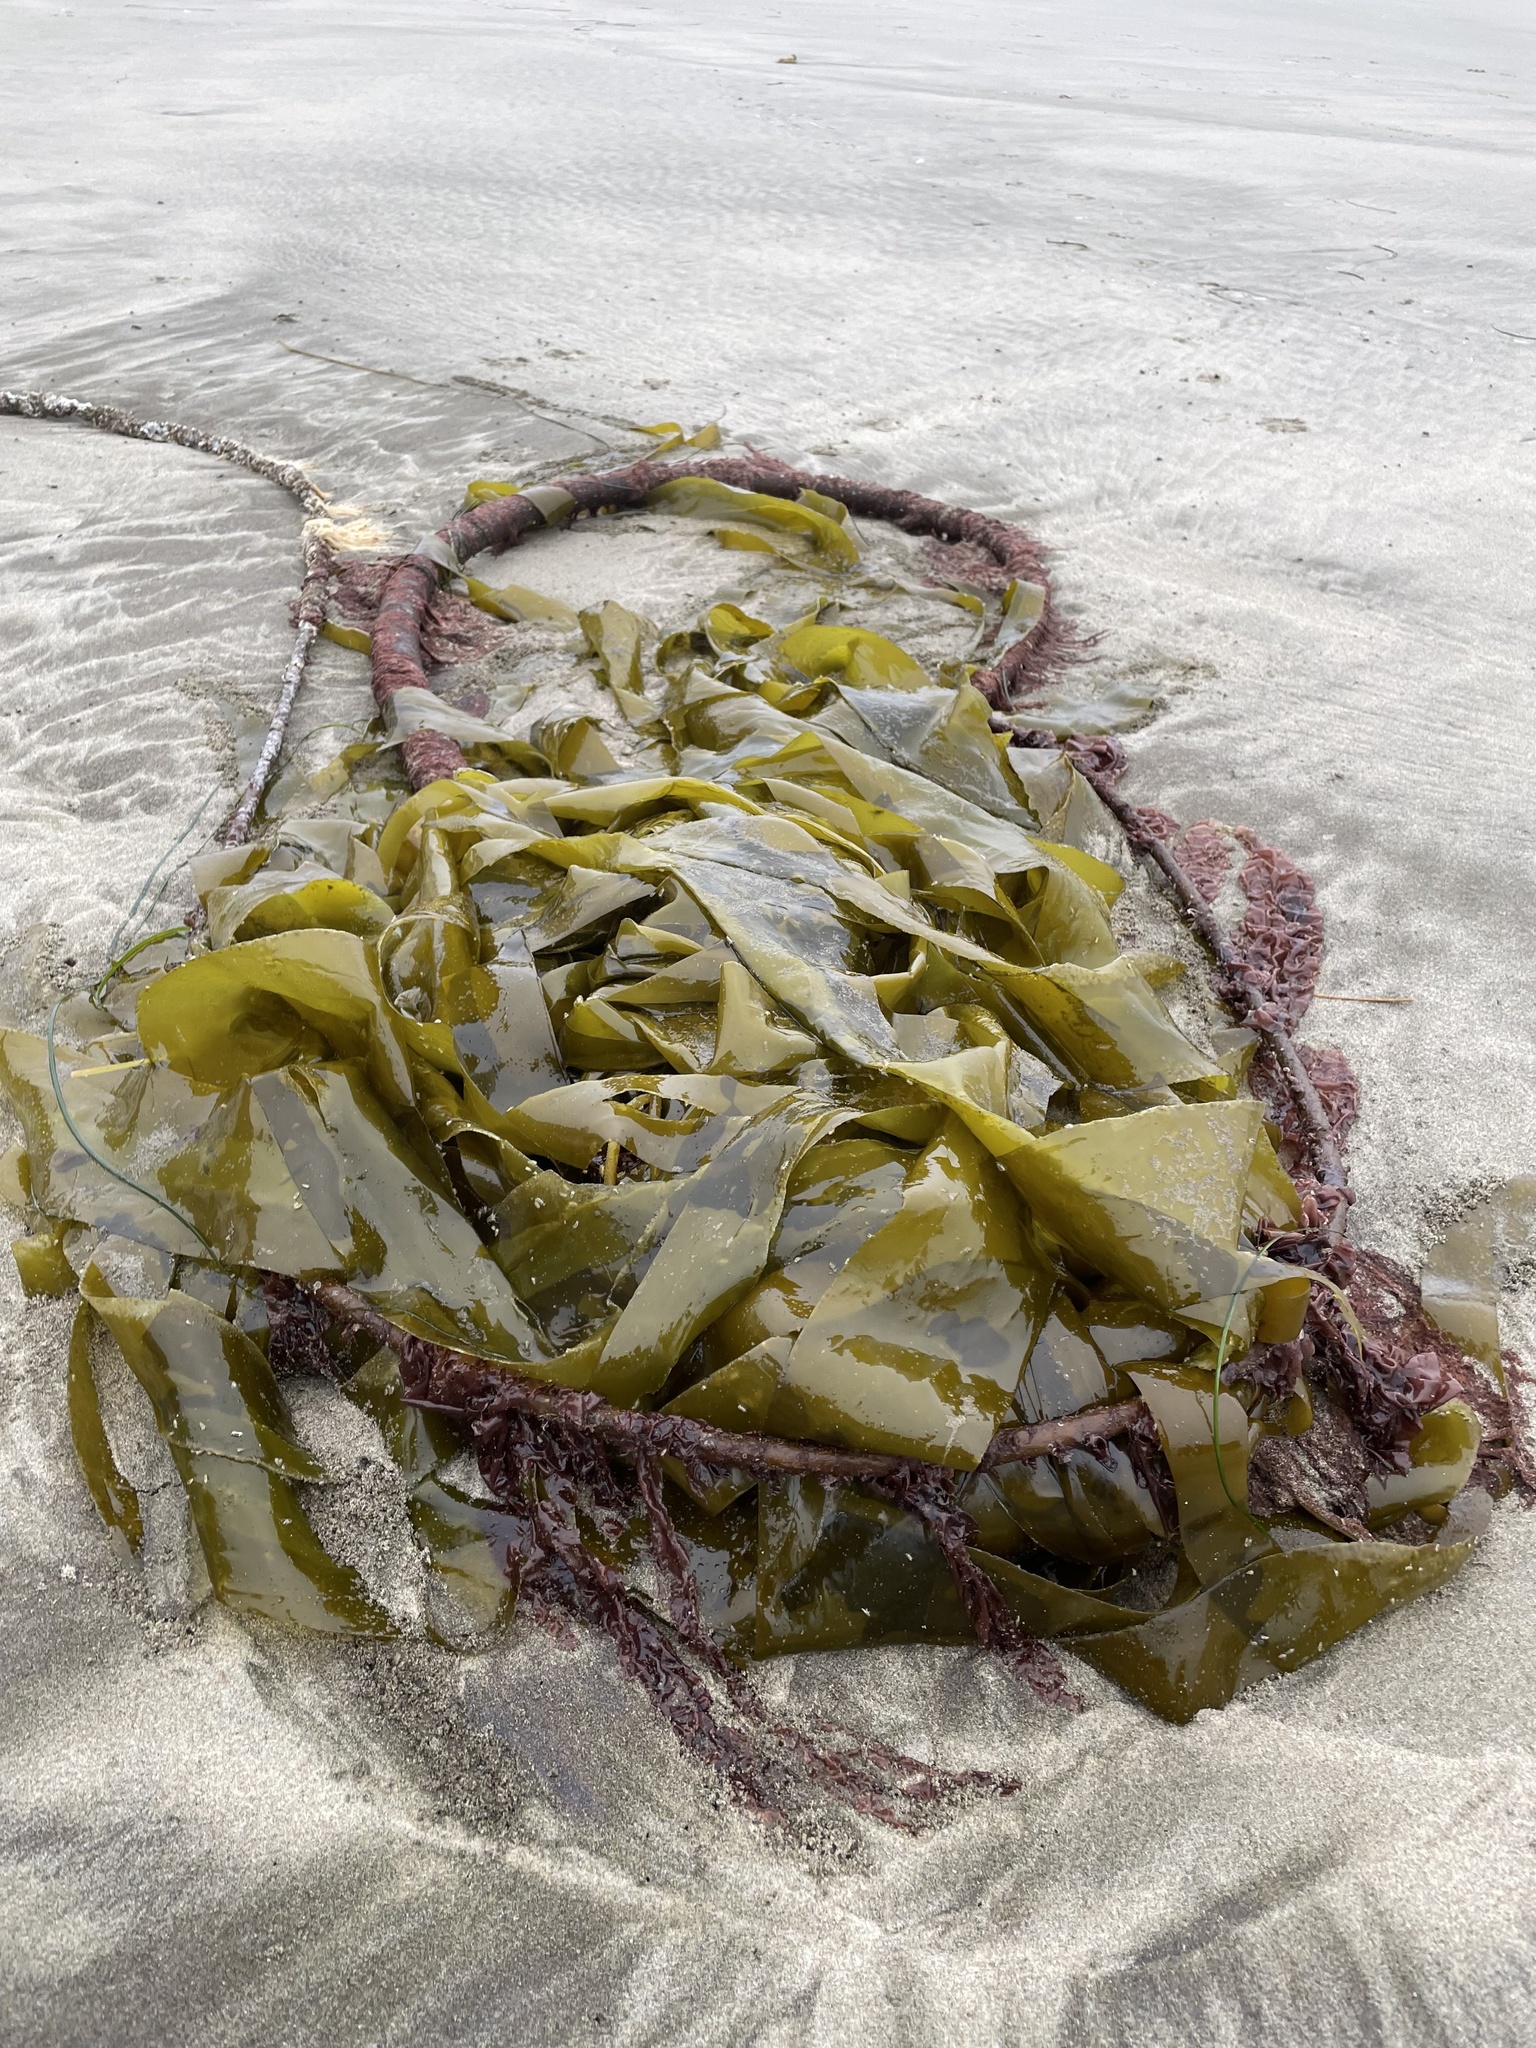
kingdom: Chromista
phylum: Ochrophyta
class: Phaeophyceae
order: Laminariales
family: Laminariaceae
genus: Nereocystis
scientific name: Nereocystis luetkeana
